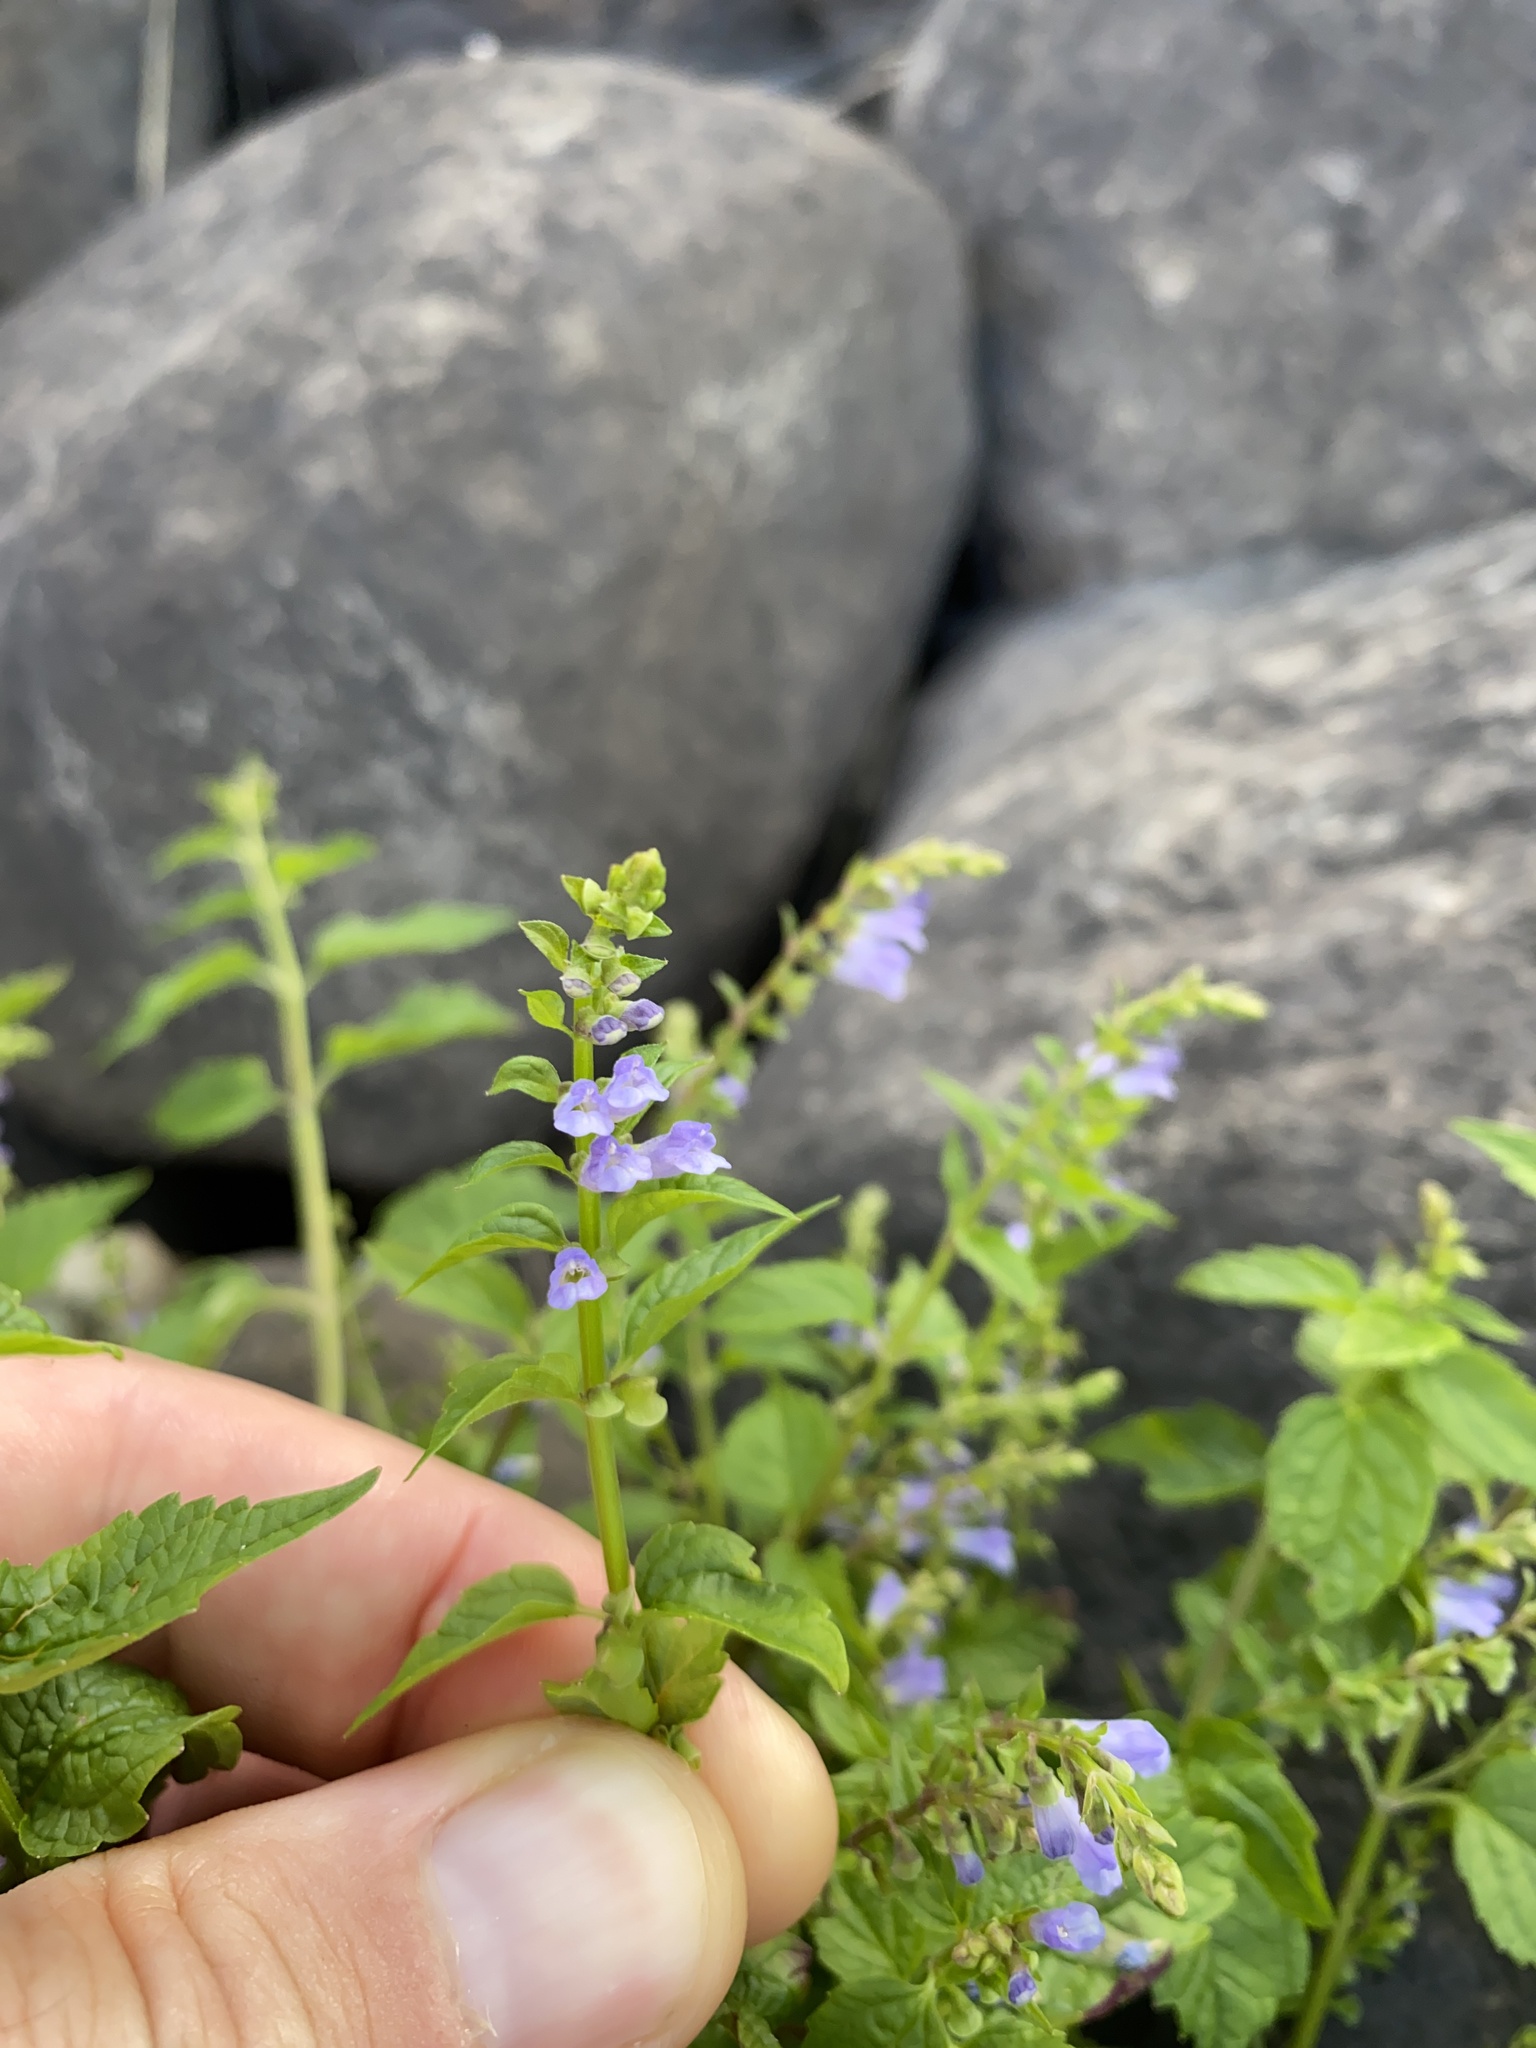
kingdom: Plantae
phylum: Tracheophyta
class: Magnoliopsida
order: Lamiales
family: Lamiaceae
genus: Scutellaria
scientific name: Scutellaria lateriflora
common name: Blue skullcap
